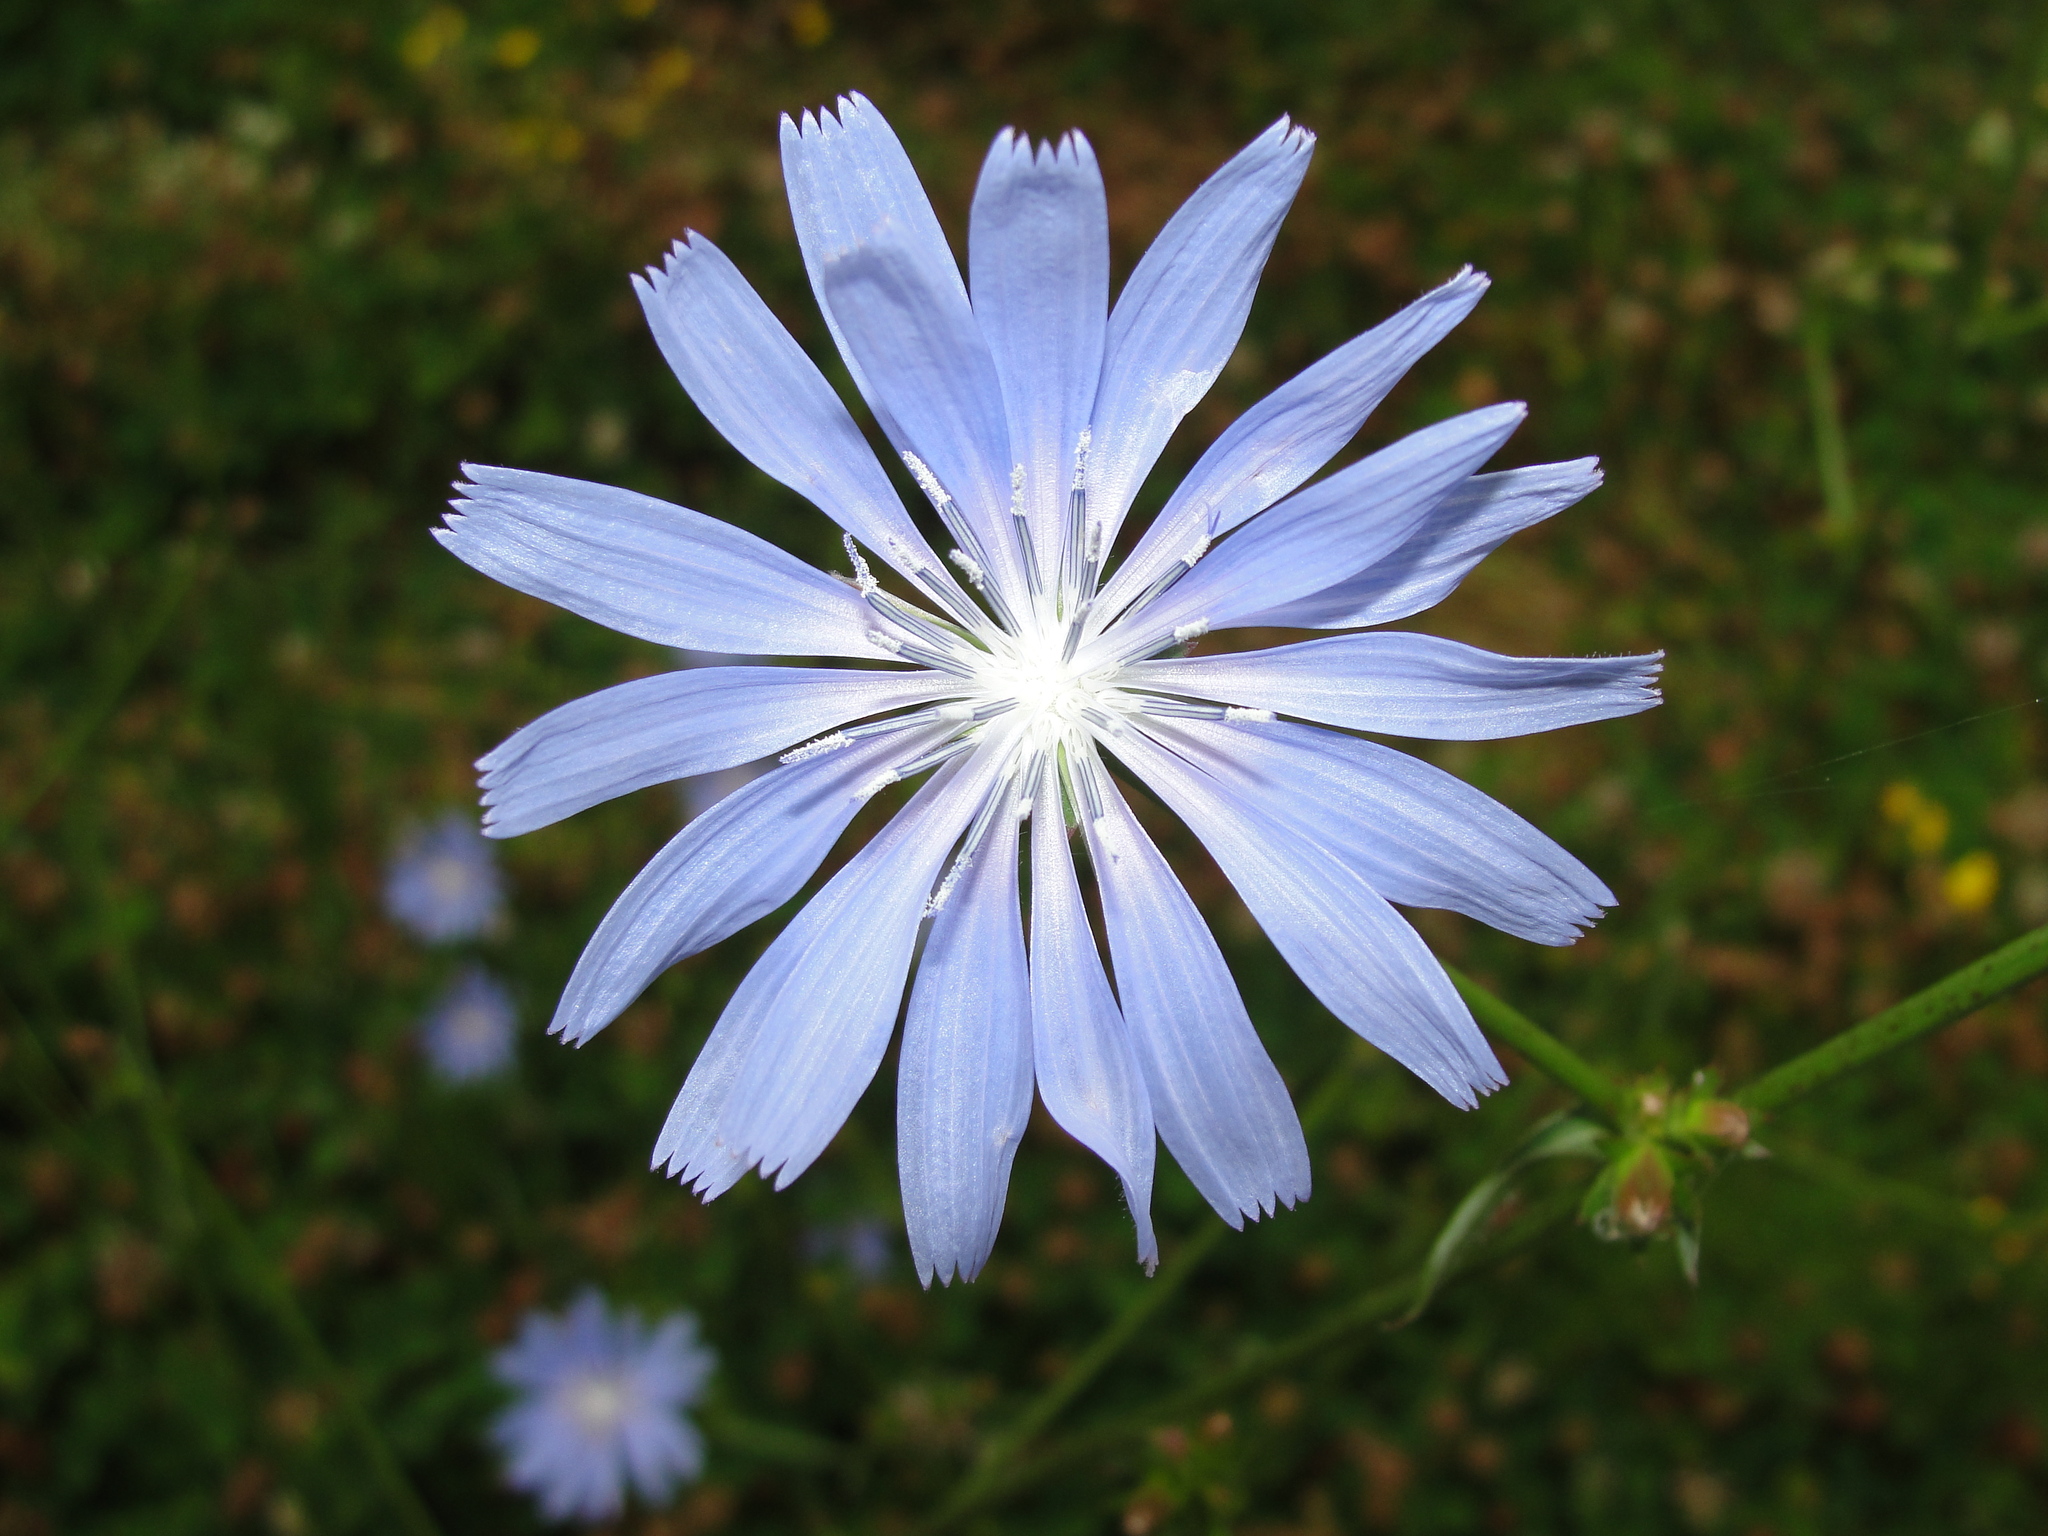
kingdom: Plantae
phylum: Tracheophyta
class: Magnoliopsida
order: Asterales
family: Asteraceae
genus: Cichorium
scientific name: Cichorium intybus
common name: Chicory
